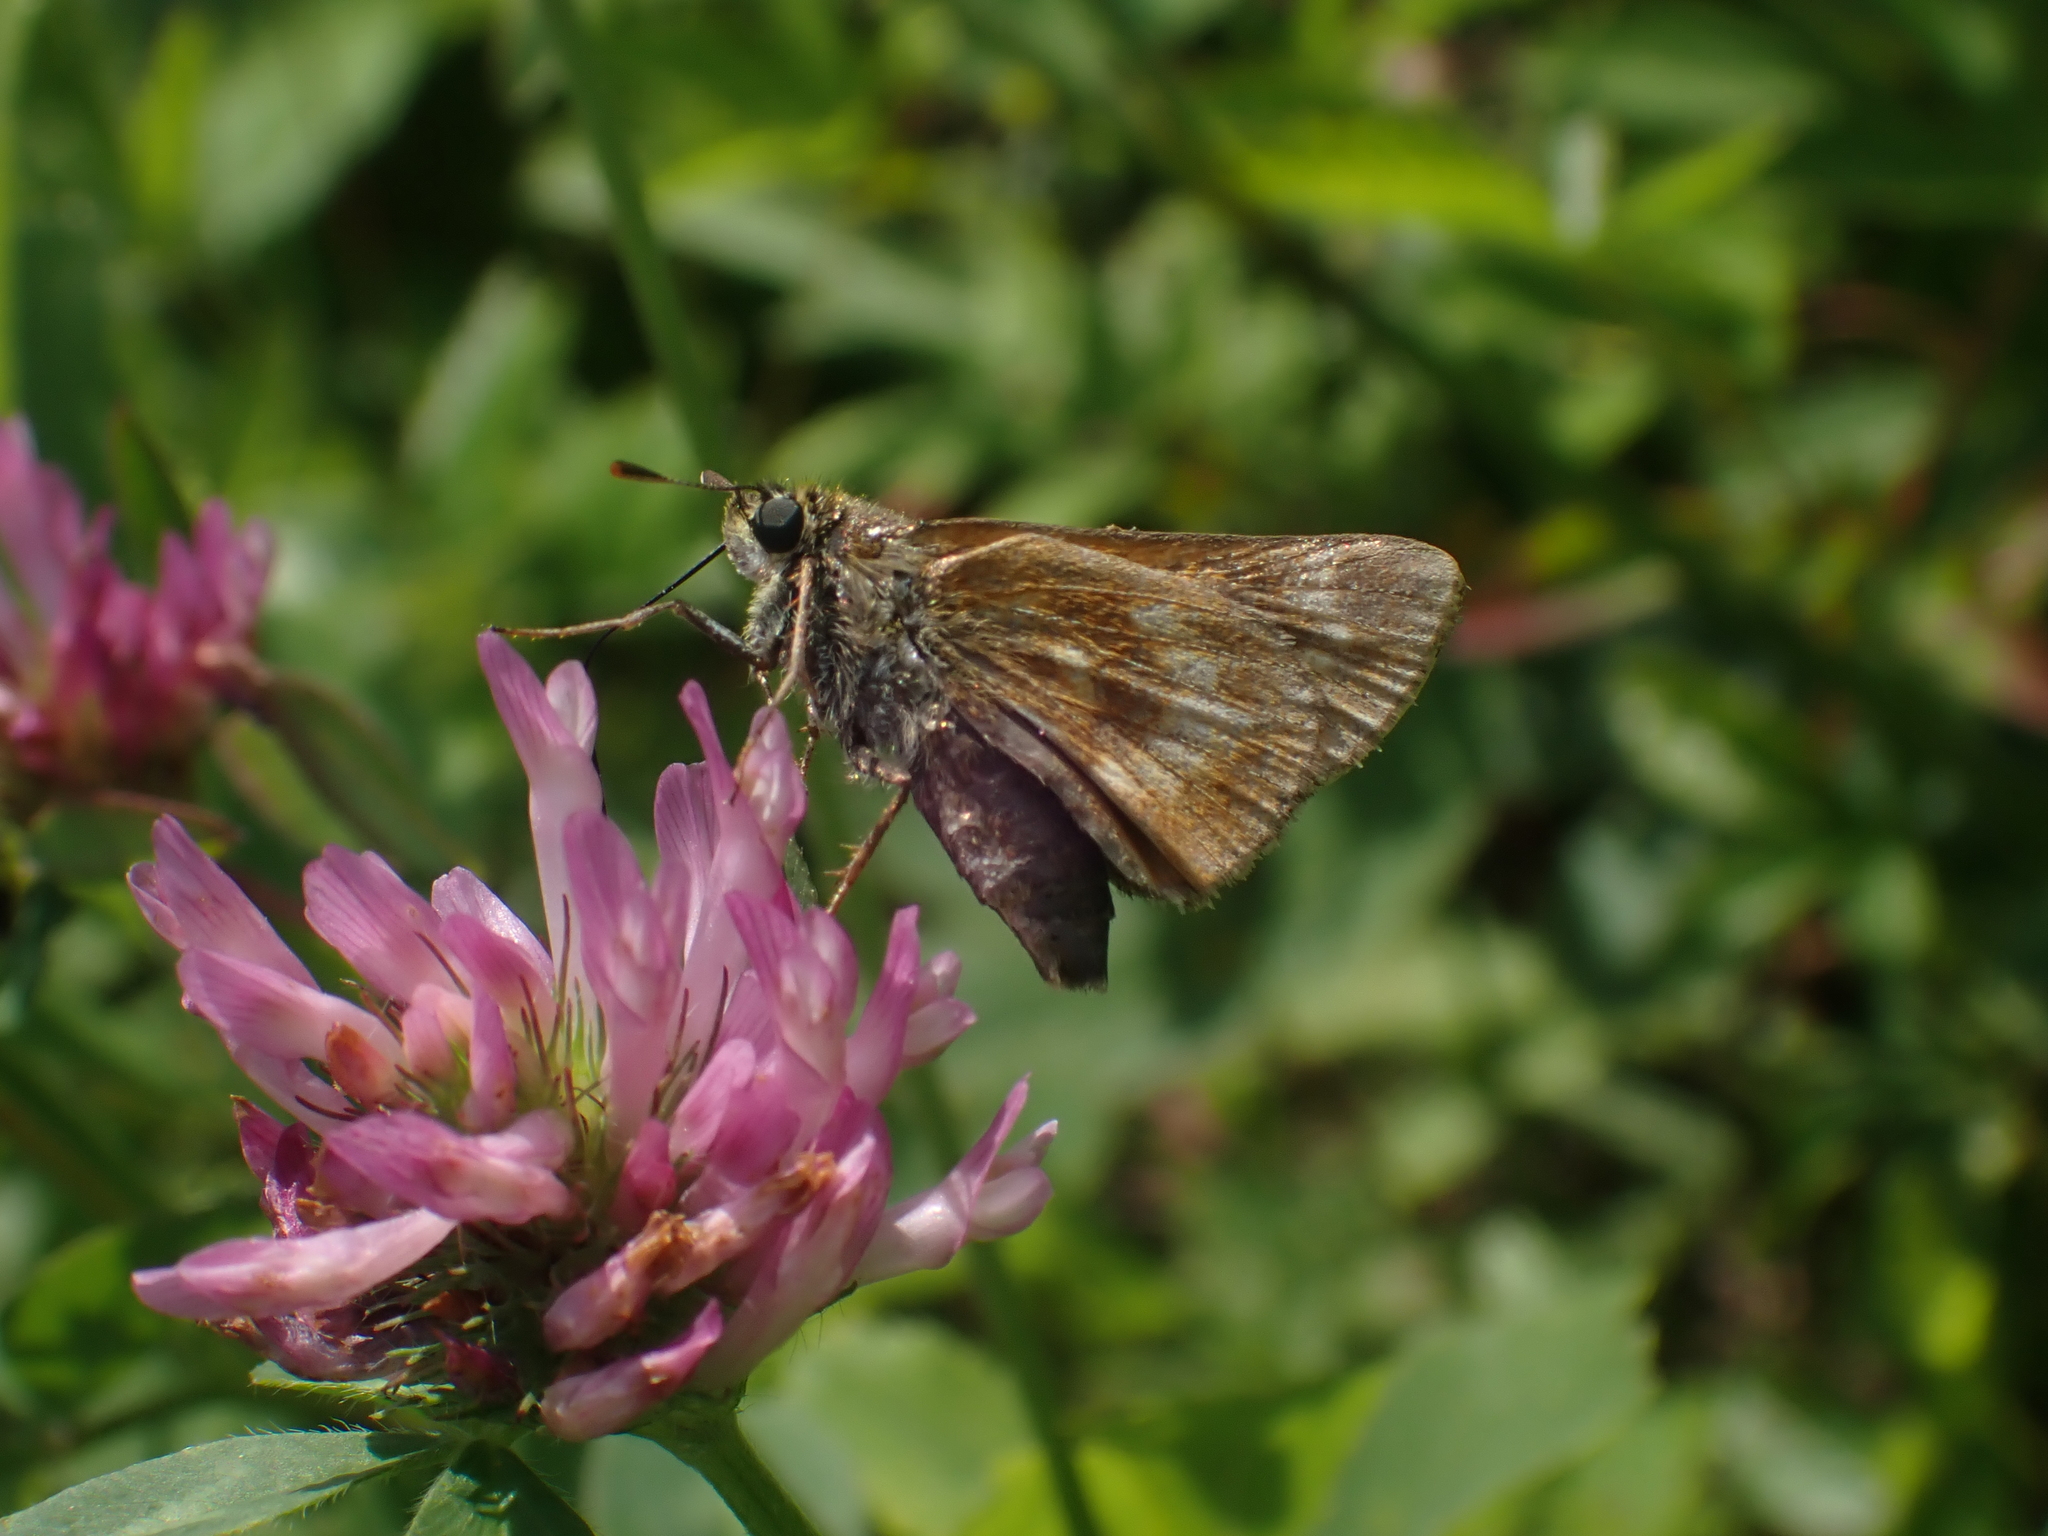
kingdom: Animalia
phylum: Arthropoda
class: Insecta
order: Lepidoptera
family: Hesperiidae
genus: Polites
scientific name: Polites mystic
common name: Long dash
